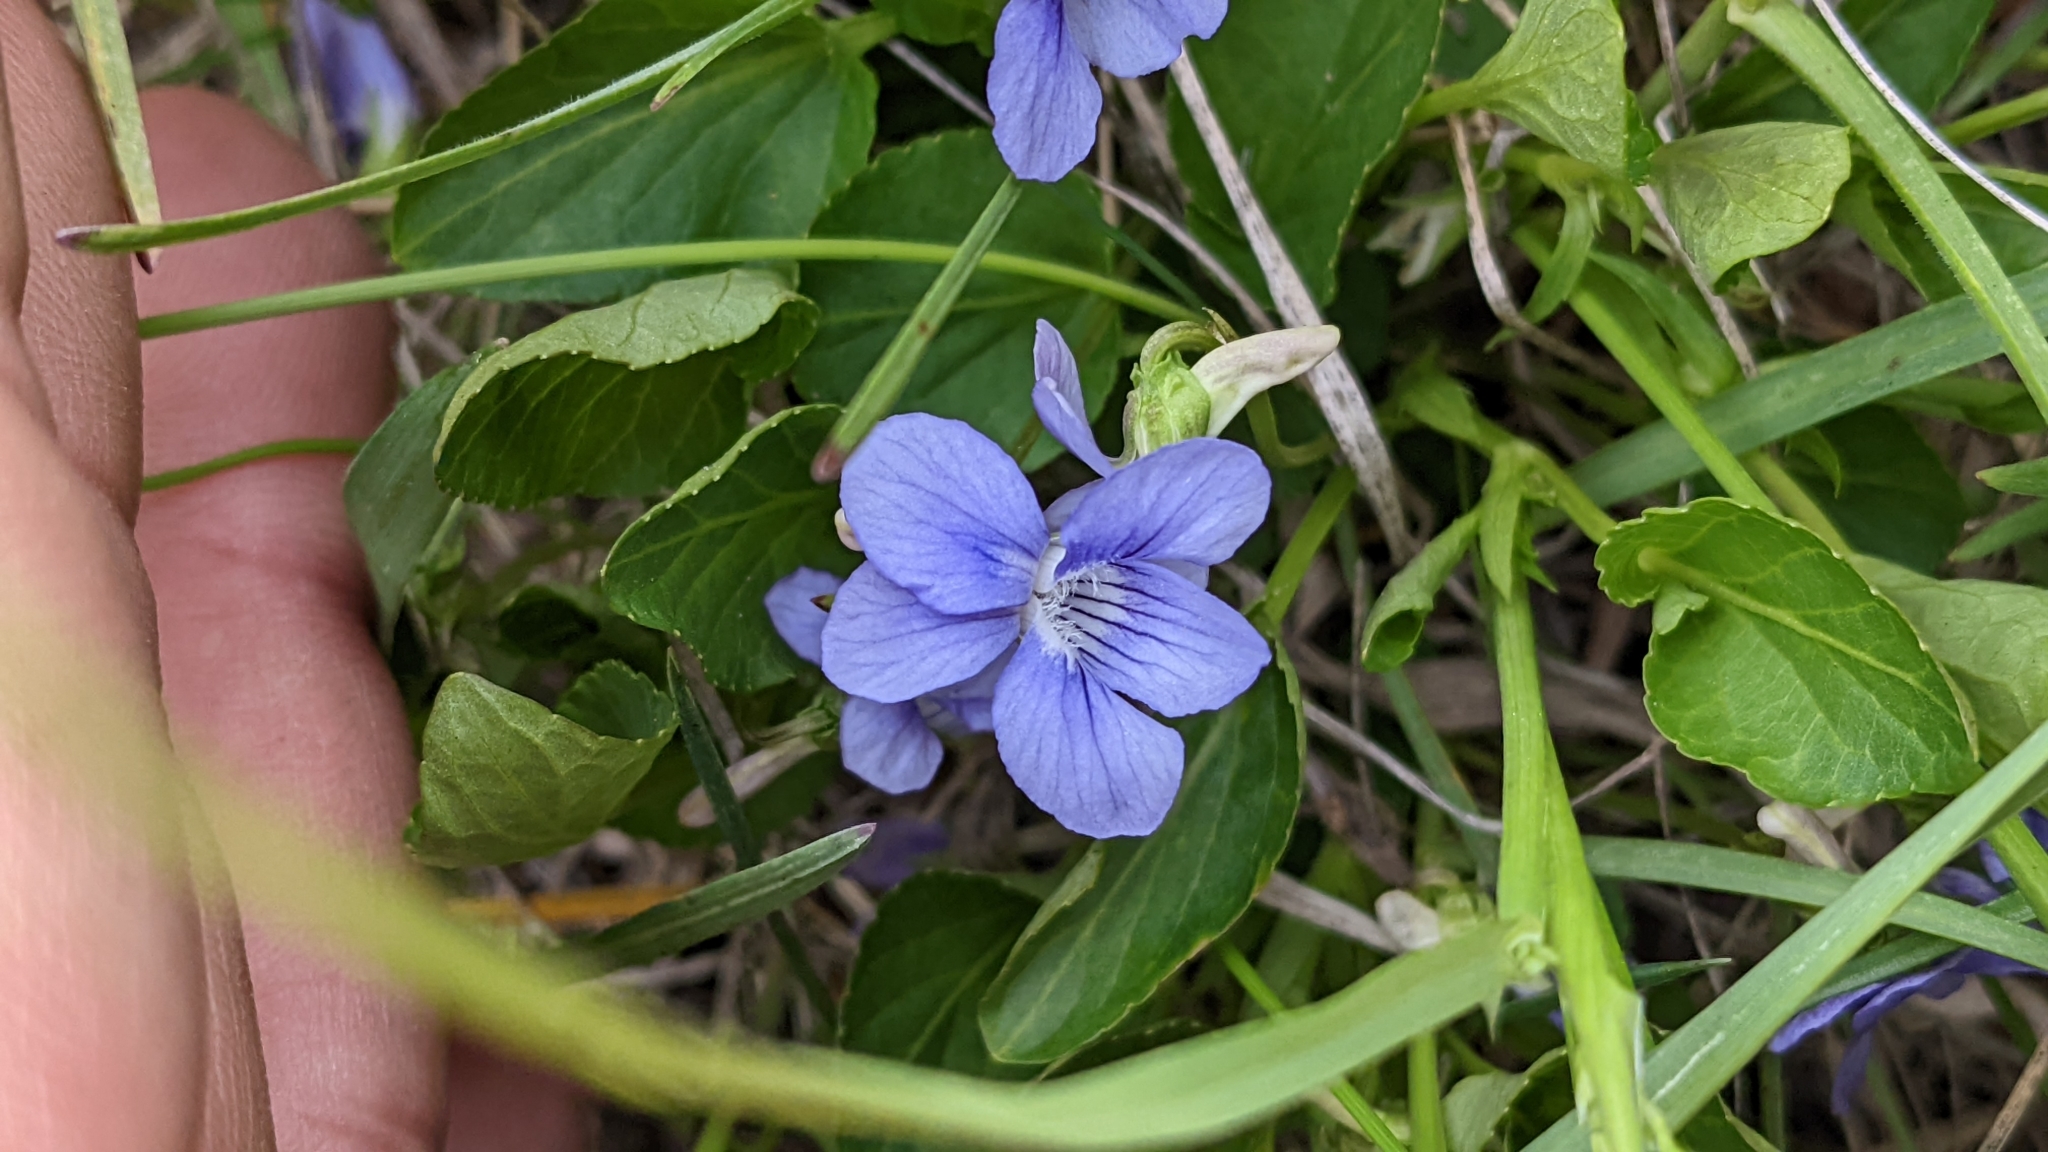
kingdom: Plantae
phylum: Tracheophyta
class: Magnoliopsida
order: Malpighiales
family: Violaceae
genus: Viola
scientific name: Viola adunca
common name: Sand violet
